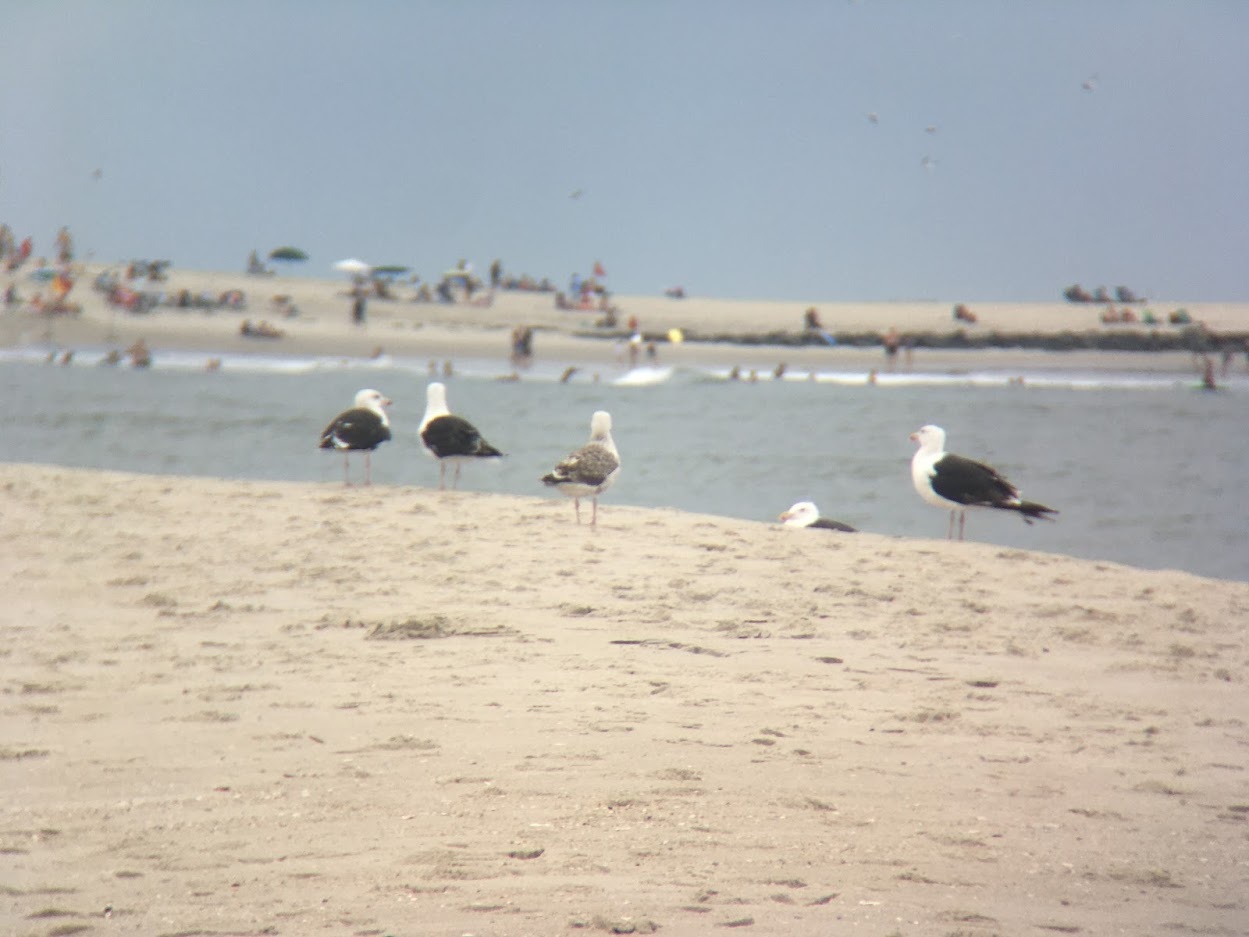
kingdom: Animalia
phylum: Chordata
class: Aves
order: Charadriiformes
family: Laridae
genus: Larus
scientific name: Larus marinus
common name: Great black-backed gull
